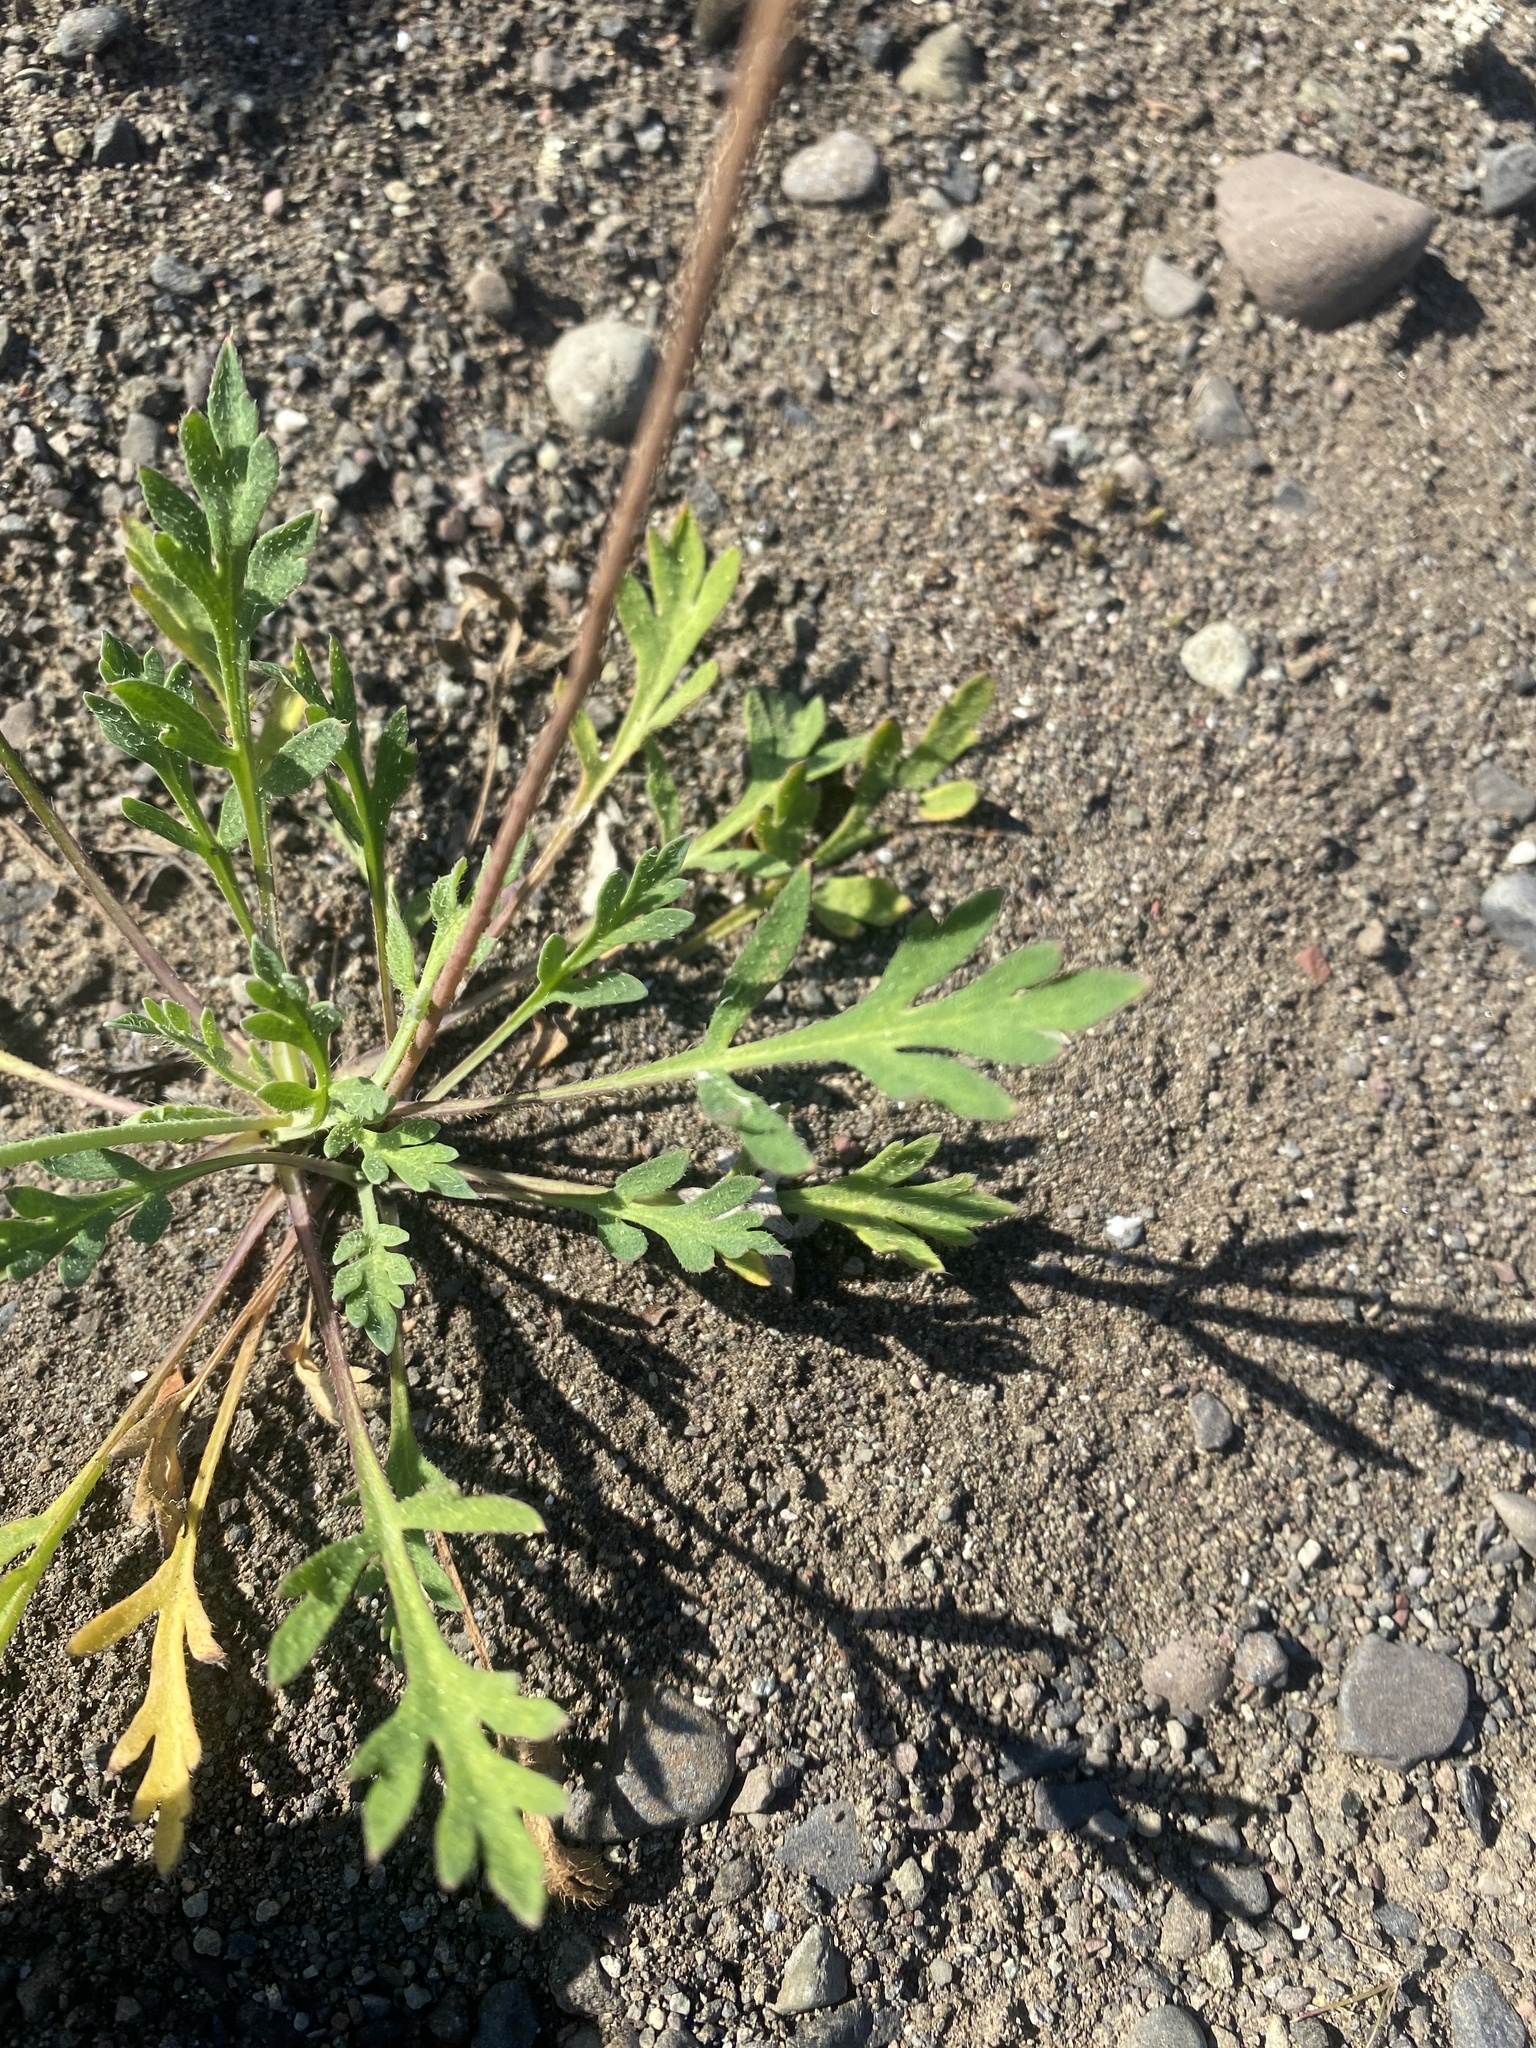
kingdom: Plantae
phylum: Tracheophyta
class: Magnoliopsida
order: Ranunculales
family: Papaveraceae
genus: Papaver
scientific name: Papaver lapponicum
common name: Lapland poppy
